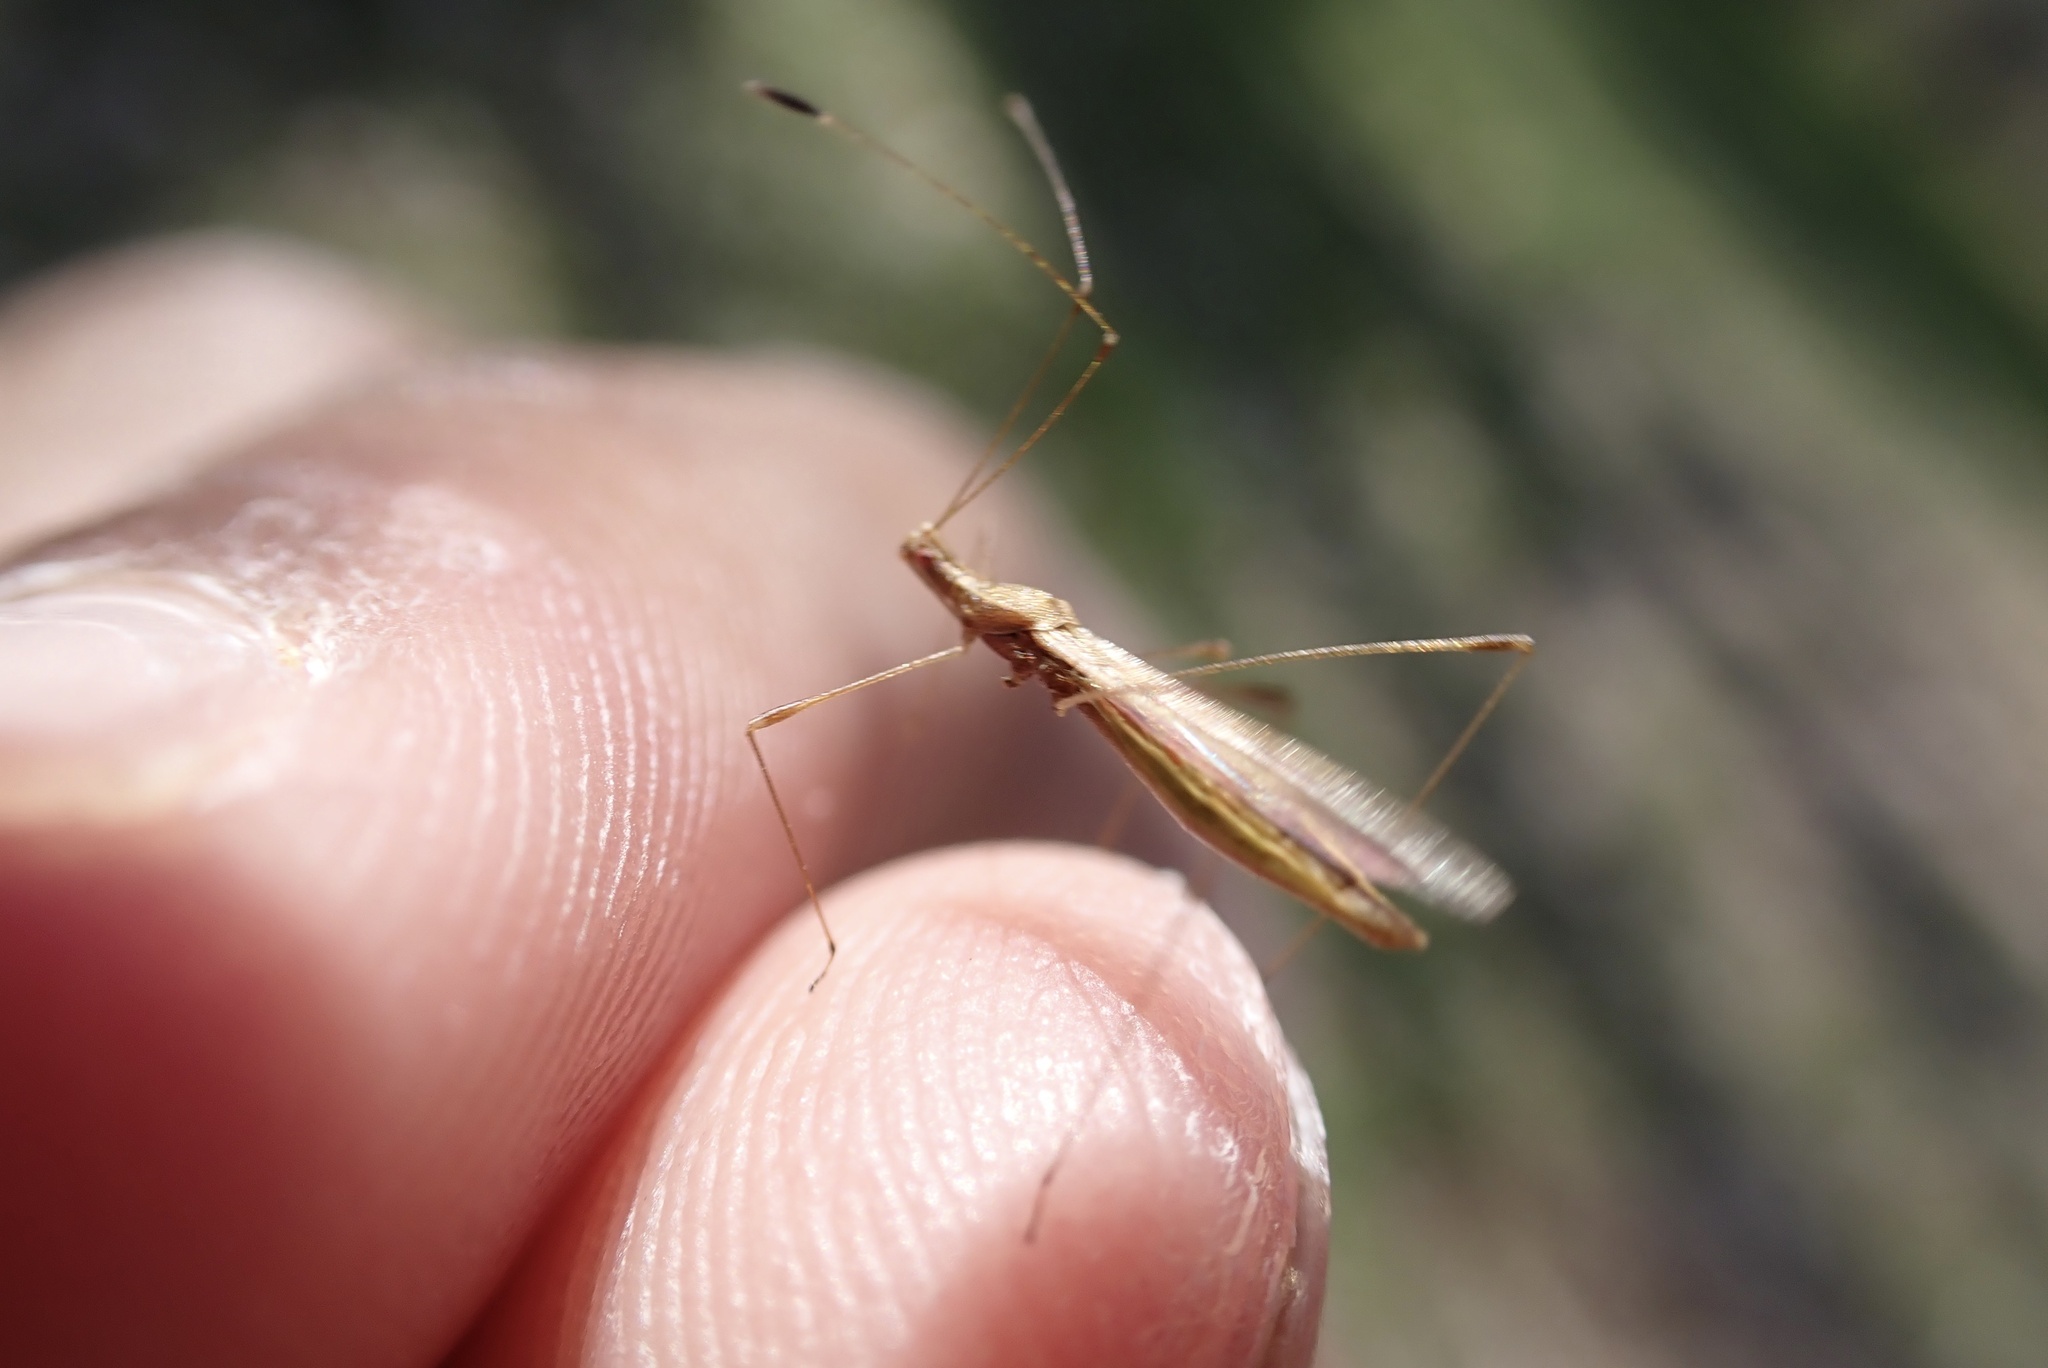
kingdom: Animalia
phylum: Arthropoda
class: Insecta
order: Hemiptera
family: Berytidae
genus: Neoneides
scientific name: Neoneides muticus
